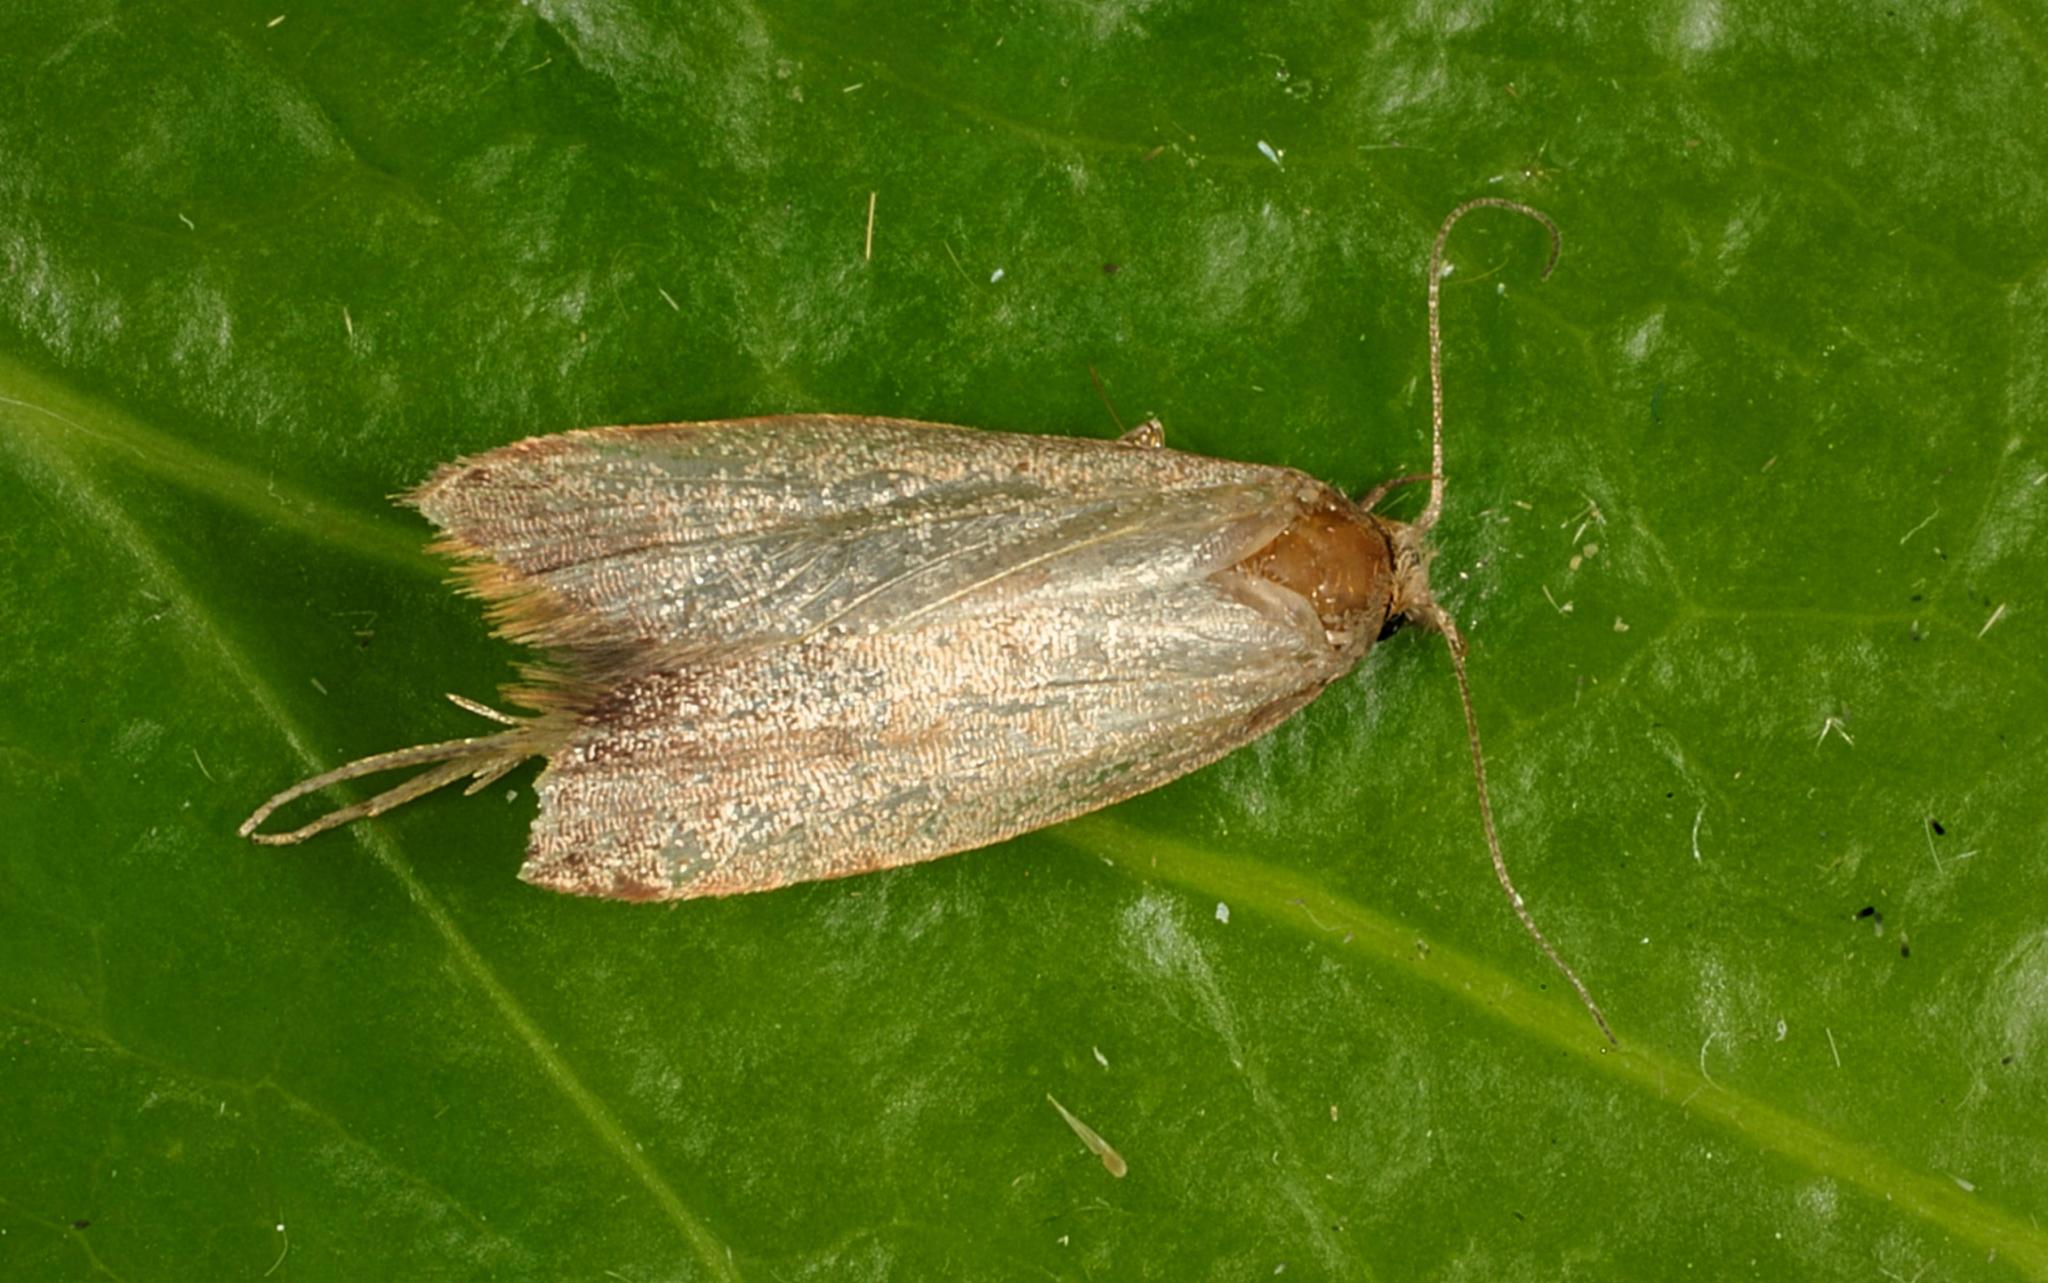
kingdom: Animalia
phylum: Arthropoda
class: Insecta
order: Lepidoptera
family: Oecophoridae
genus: Tachystola
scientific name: Tachystola acroxantha
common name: Ruddy streak
